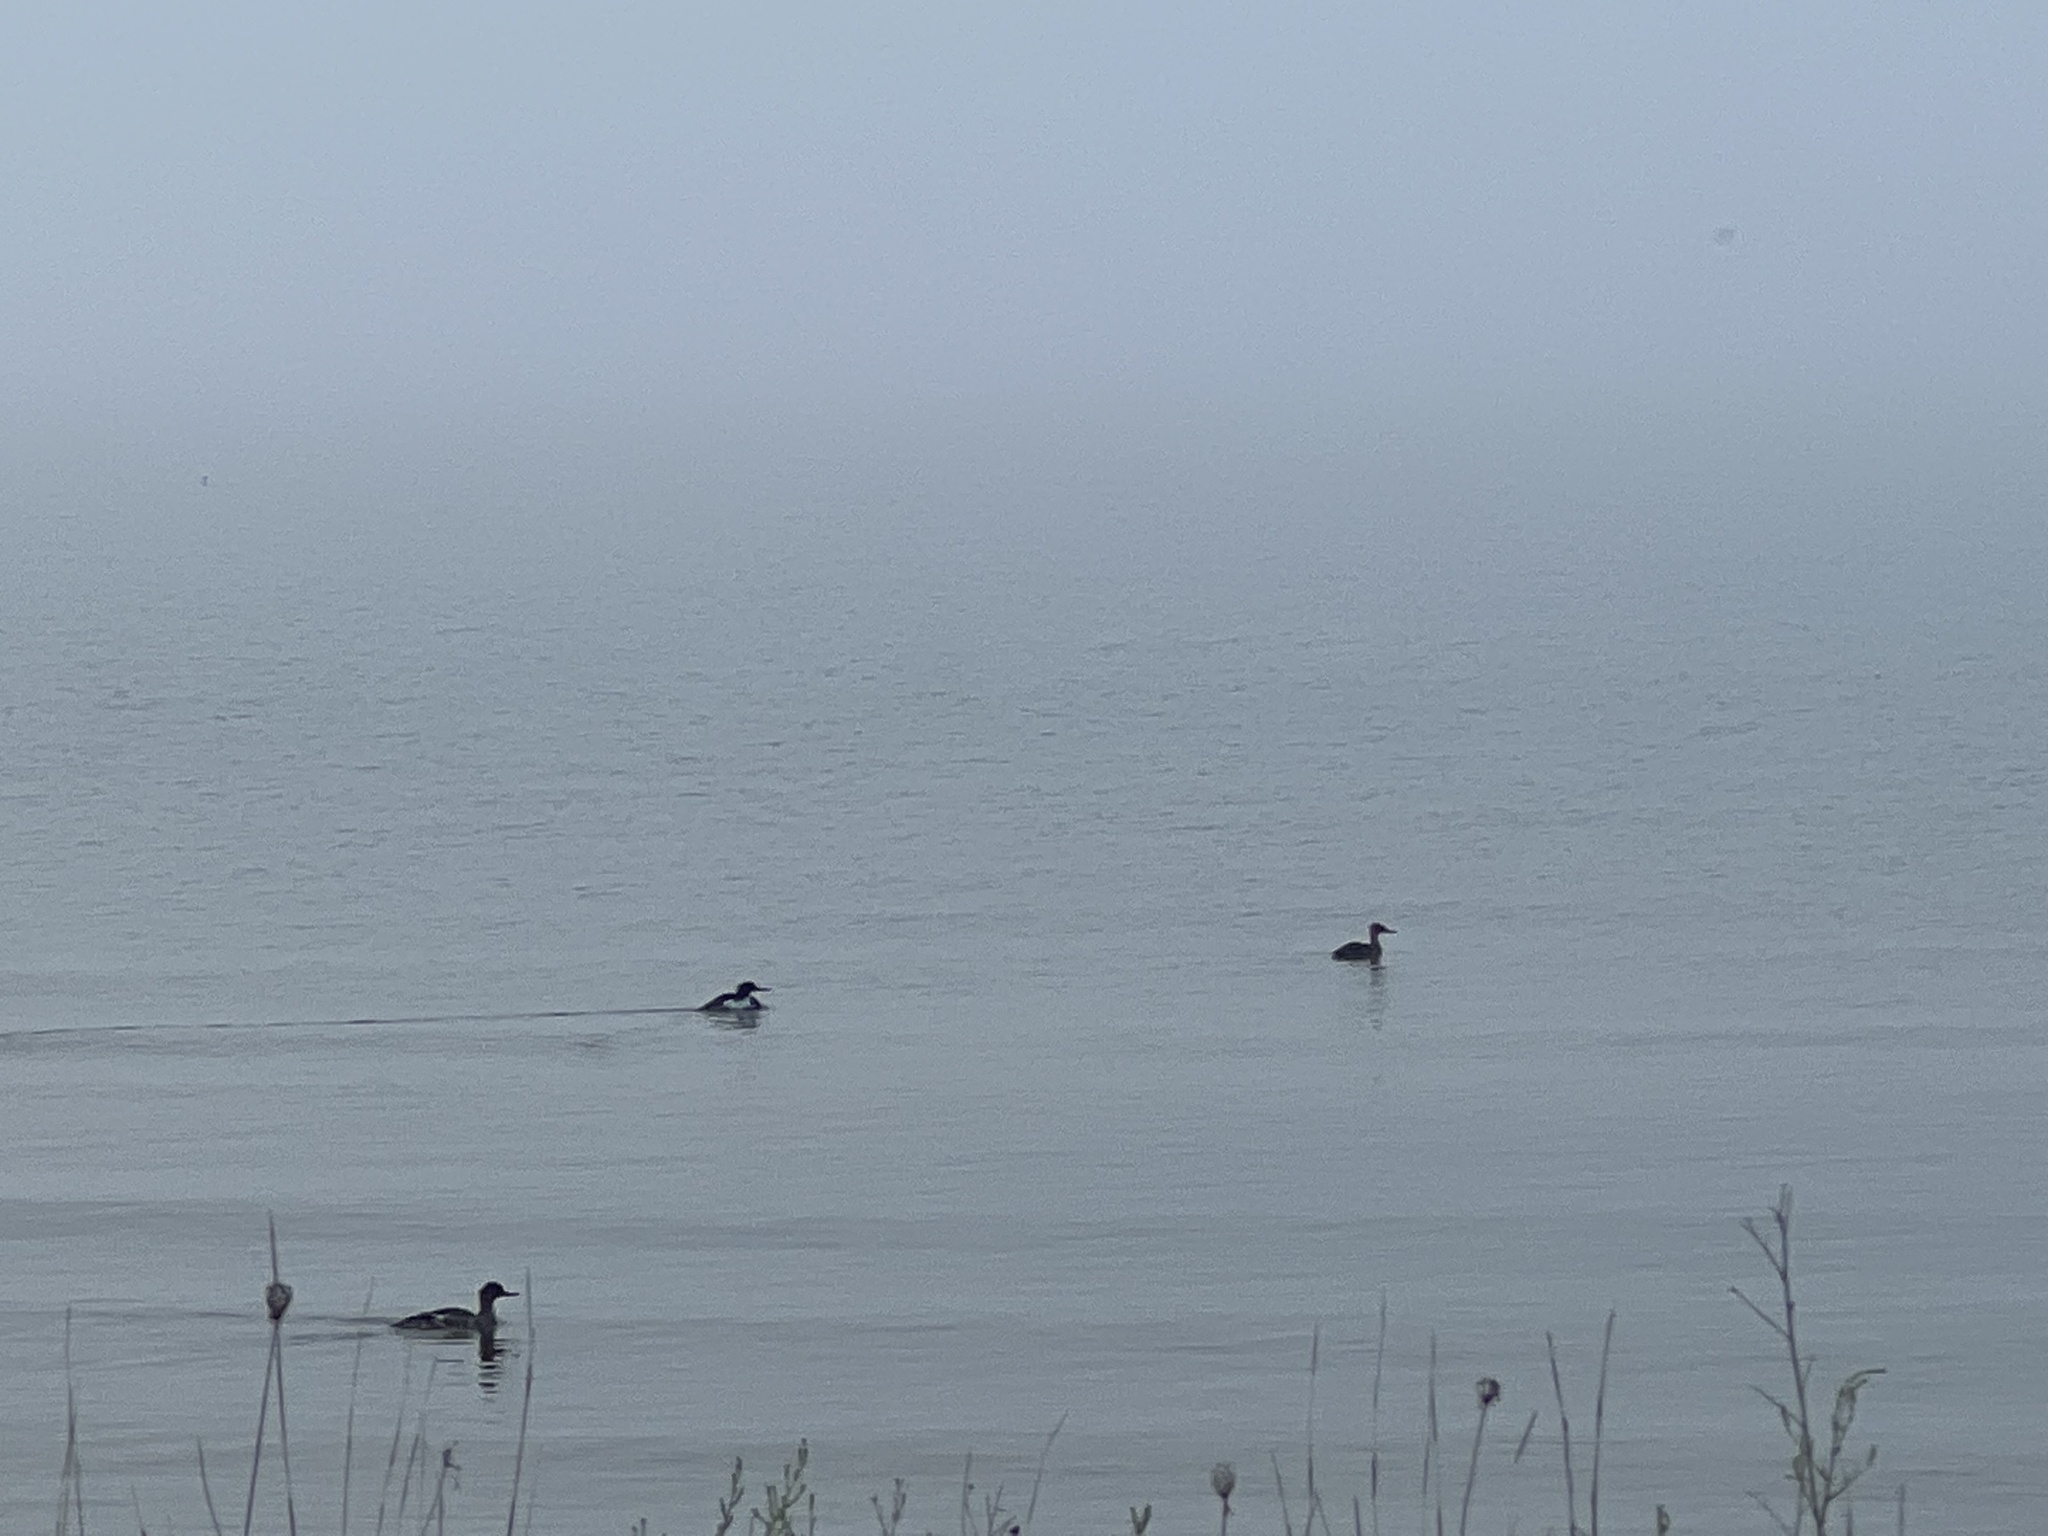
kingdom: Animalia
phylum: Chordata
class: Aves
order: Anseriformes
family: Anatidae
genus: Mergus
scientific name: Mergus serrator
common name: Red-breasted merganser
